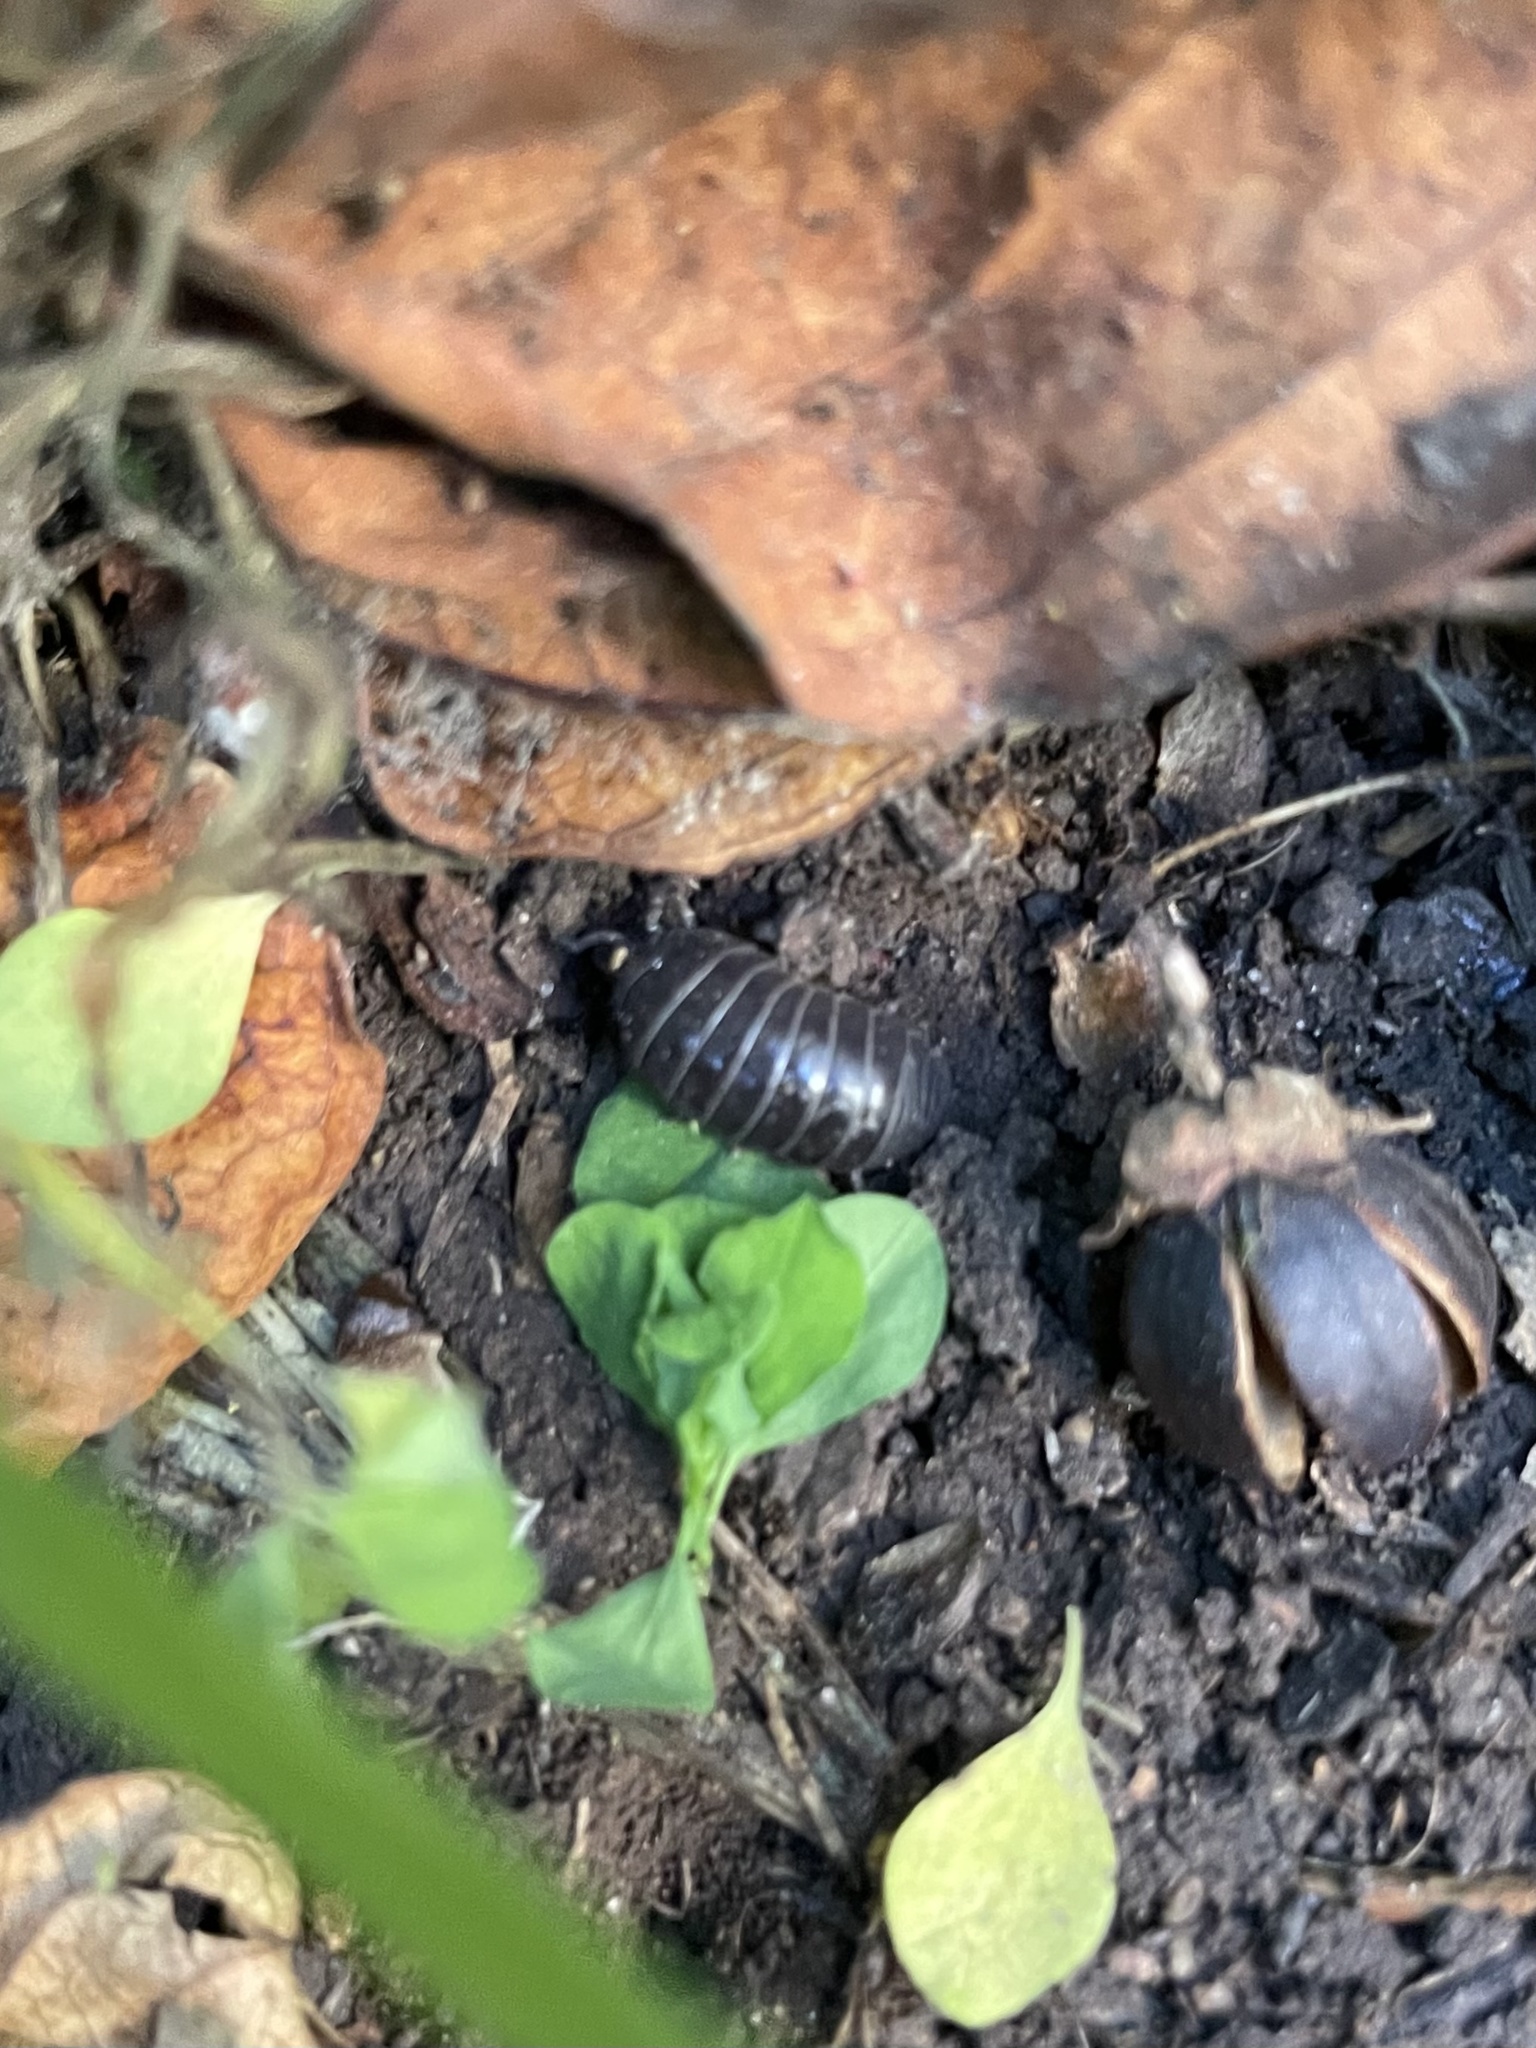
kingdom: Animalia
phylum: Arthropoda
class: Malacostraca
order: Isopoda
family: Armadillidiidae
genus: Armadillidium
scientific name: Armadillidium vulgare
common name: Common pill woodlouse
